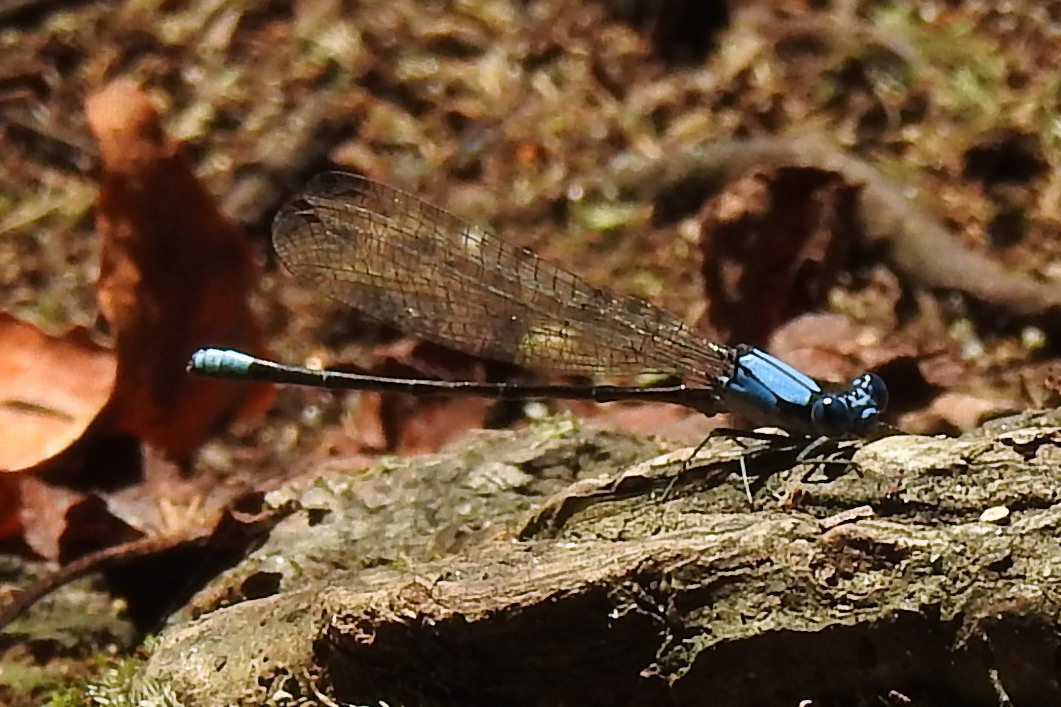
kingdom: Animalia
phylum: Arthropoda
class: Insecta
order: Odonata
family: Coenagrionidae
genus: Argia
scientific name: Argia apicalis
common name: Blue-fronted dancer
